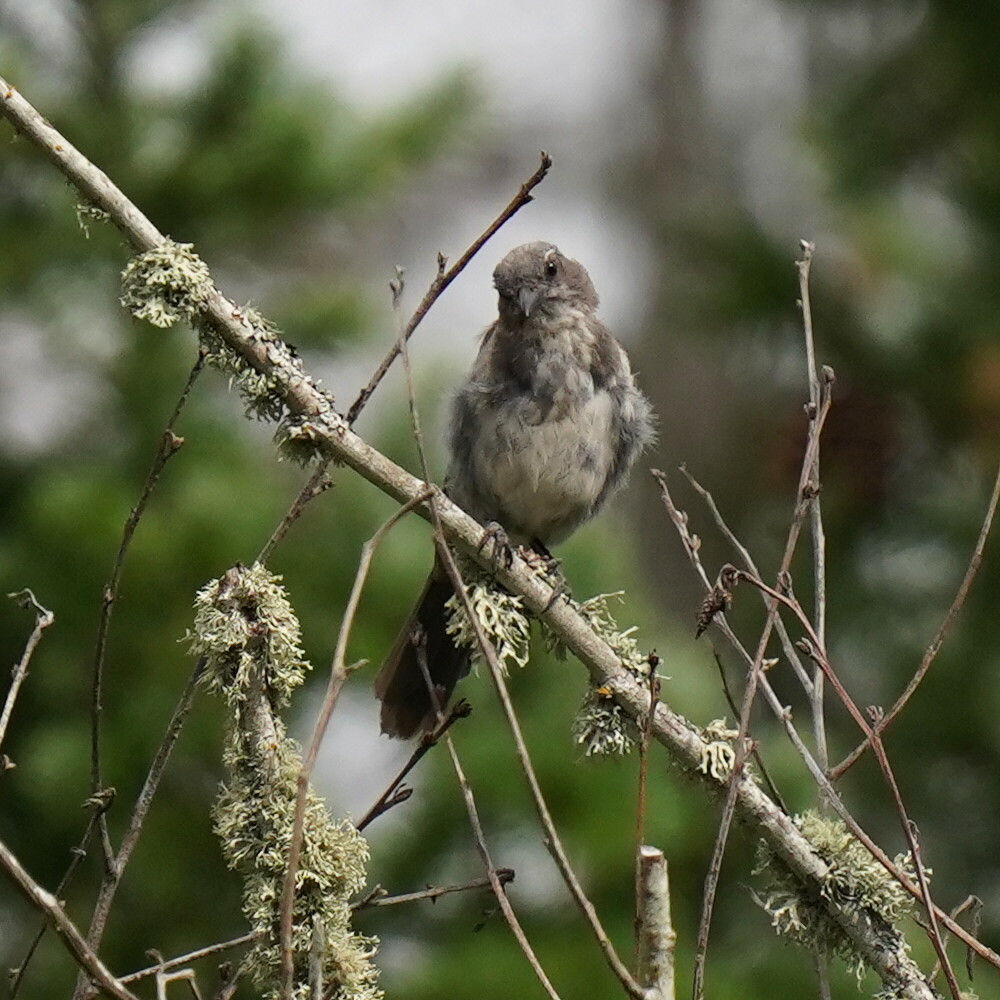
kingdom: Animalia
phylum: Chordata
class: Aves
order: Passeriformes
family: Corvidae
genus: Aphelocoma
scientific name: Aphelocoma californica
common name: California scrub-jay
